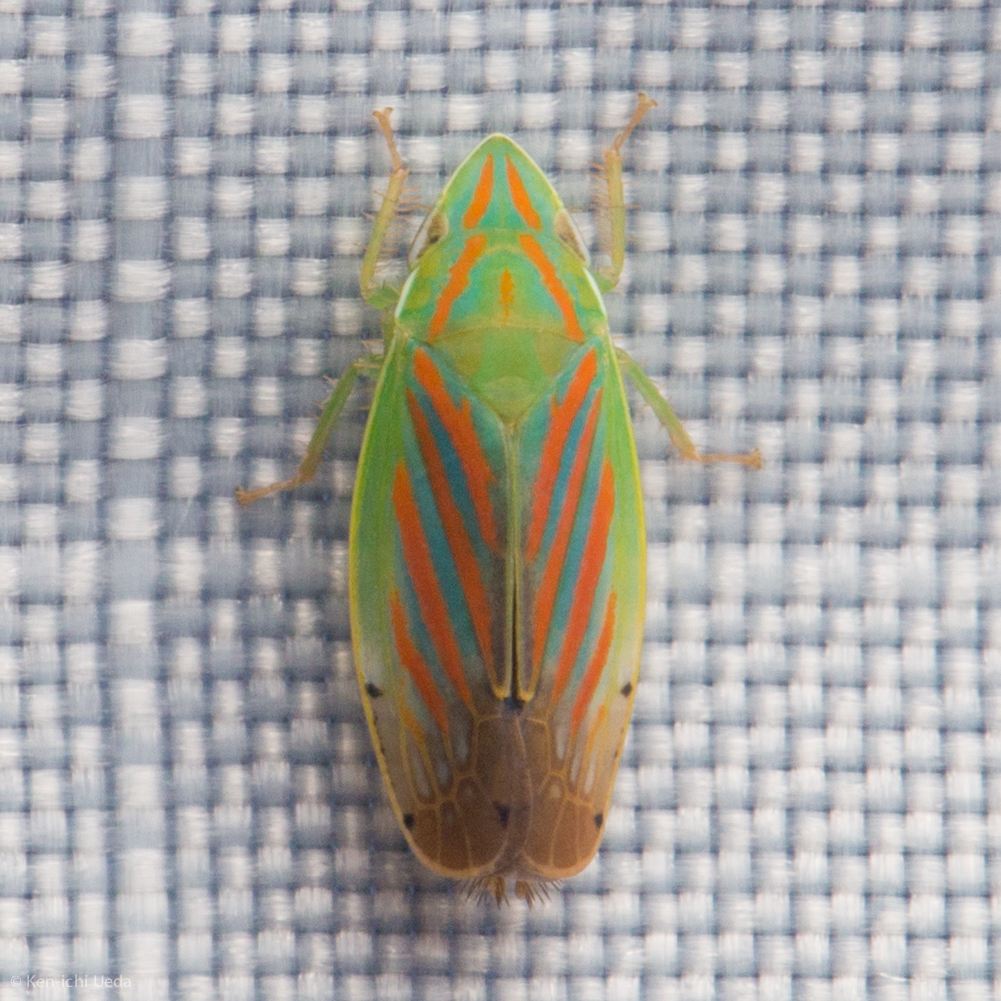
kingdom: Animalia
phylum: Arthropoda
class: Insecta
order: Hemiptera
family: Cicadellidae
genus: Spangbergiella
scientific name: Spangbergiella quadripunctata
